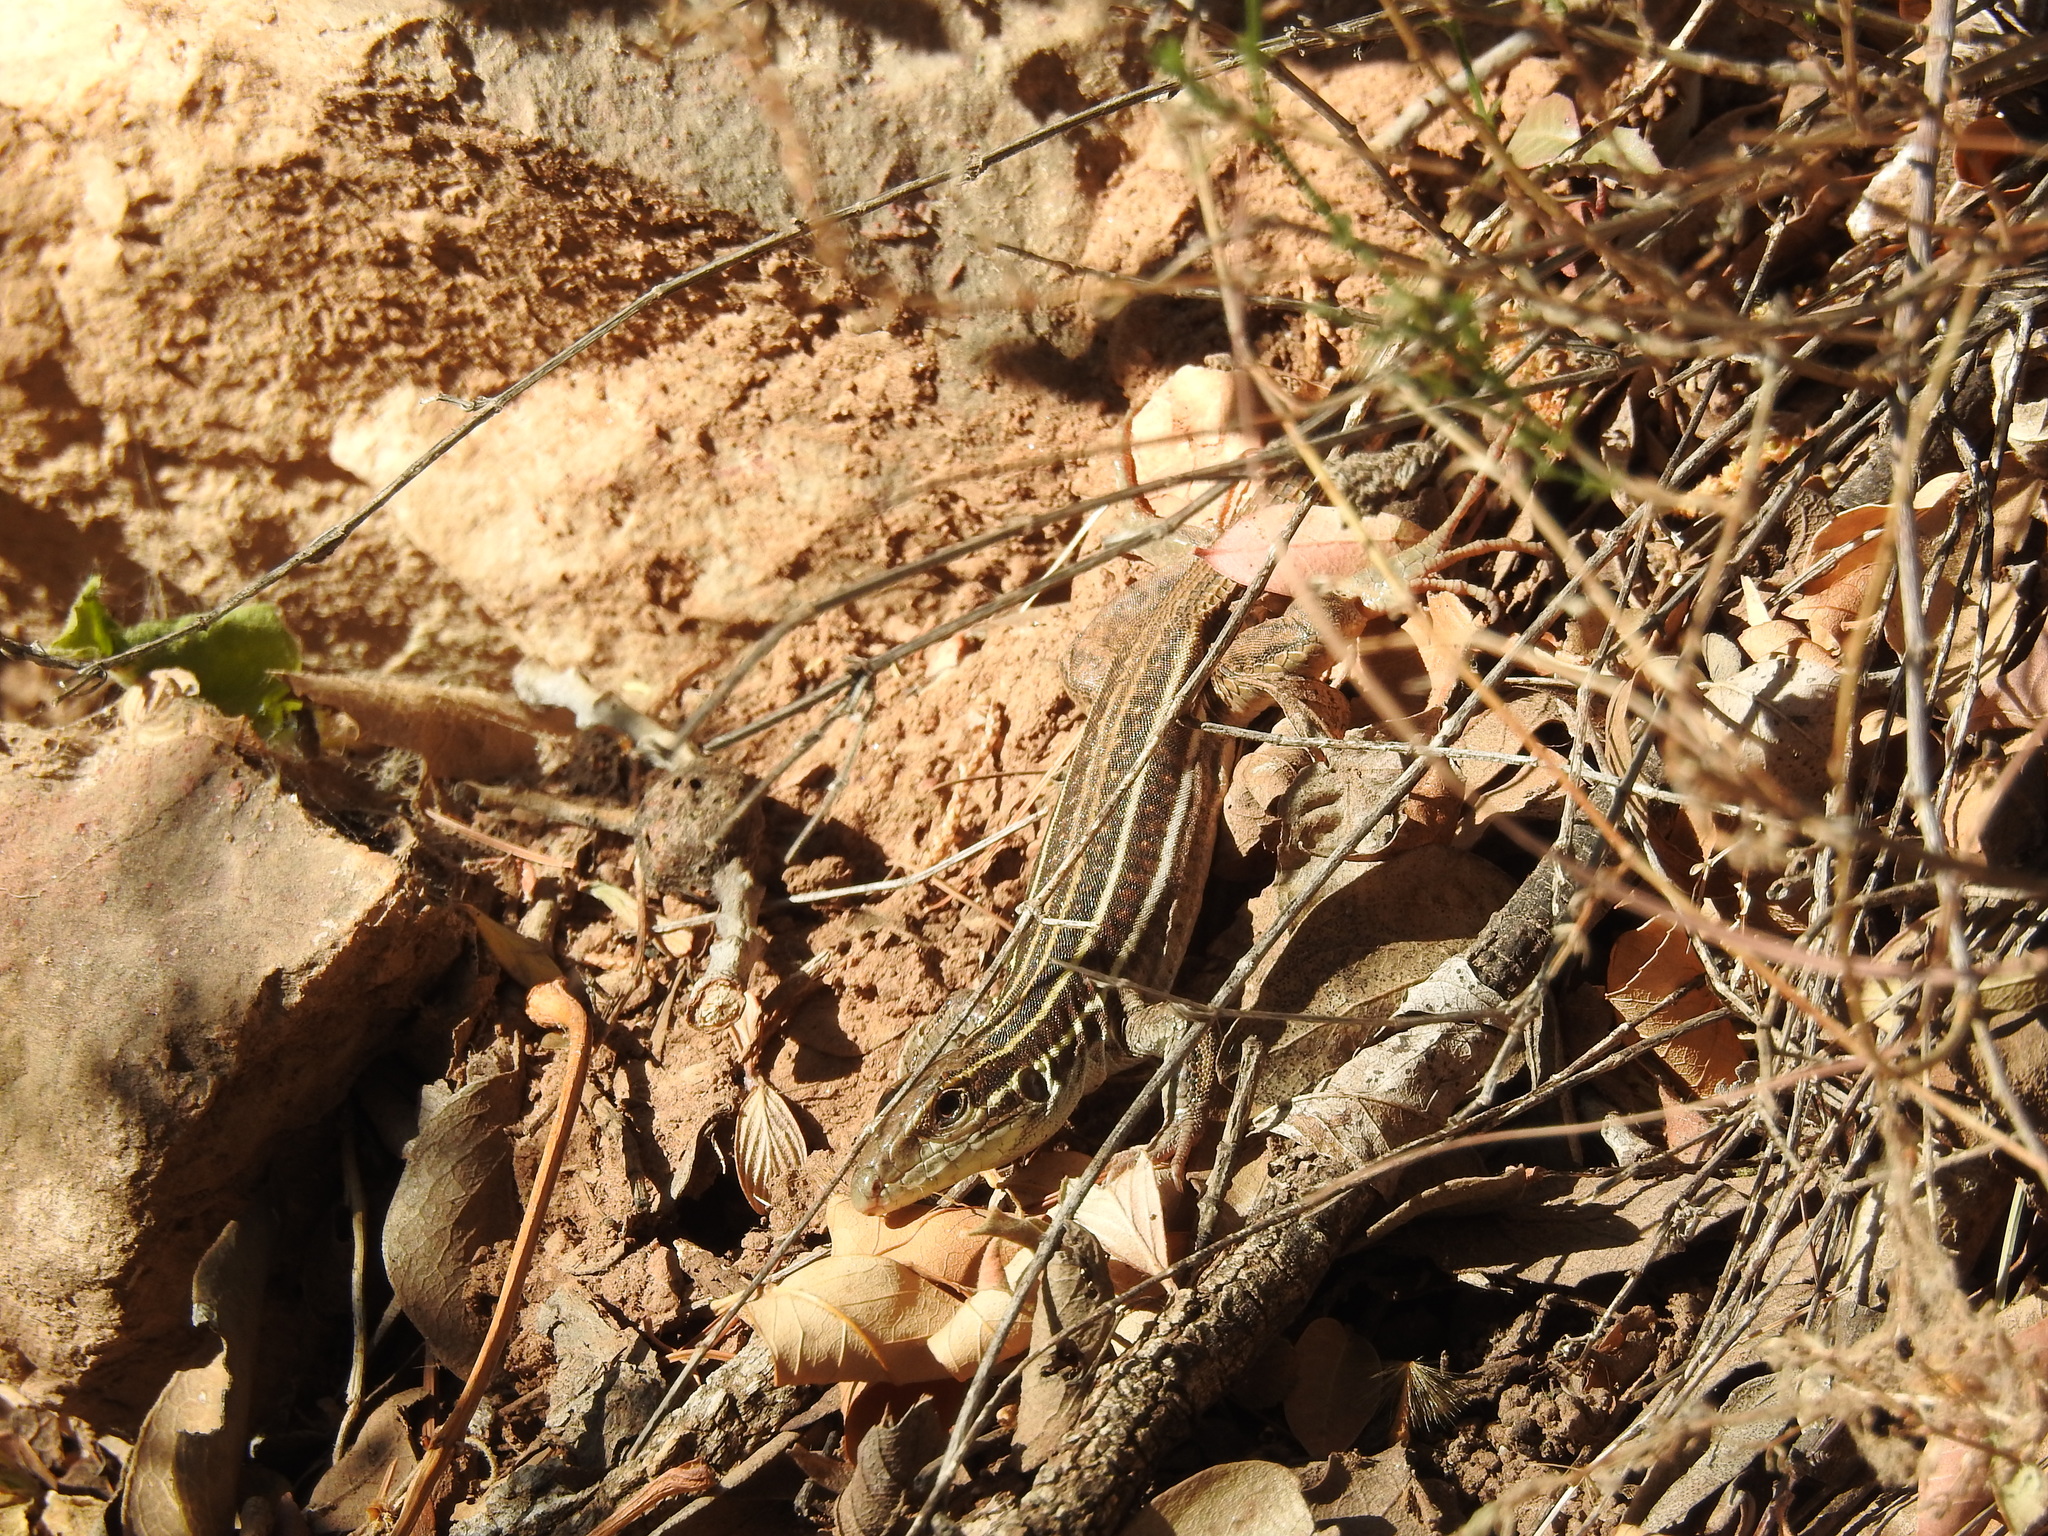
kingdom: Animalia
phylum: Chordata
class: Squamata
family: Teiidae
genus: Aspidoscelis
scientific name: Aspidoscelis sonorae
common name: Sonoran spotted whiptail
